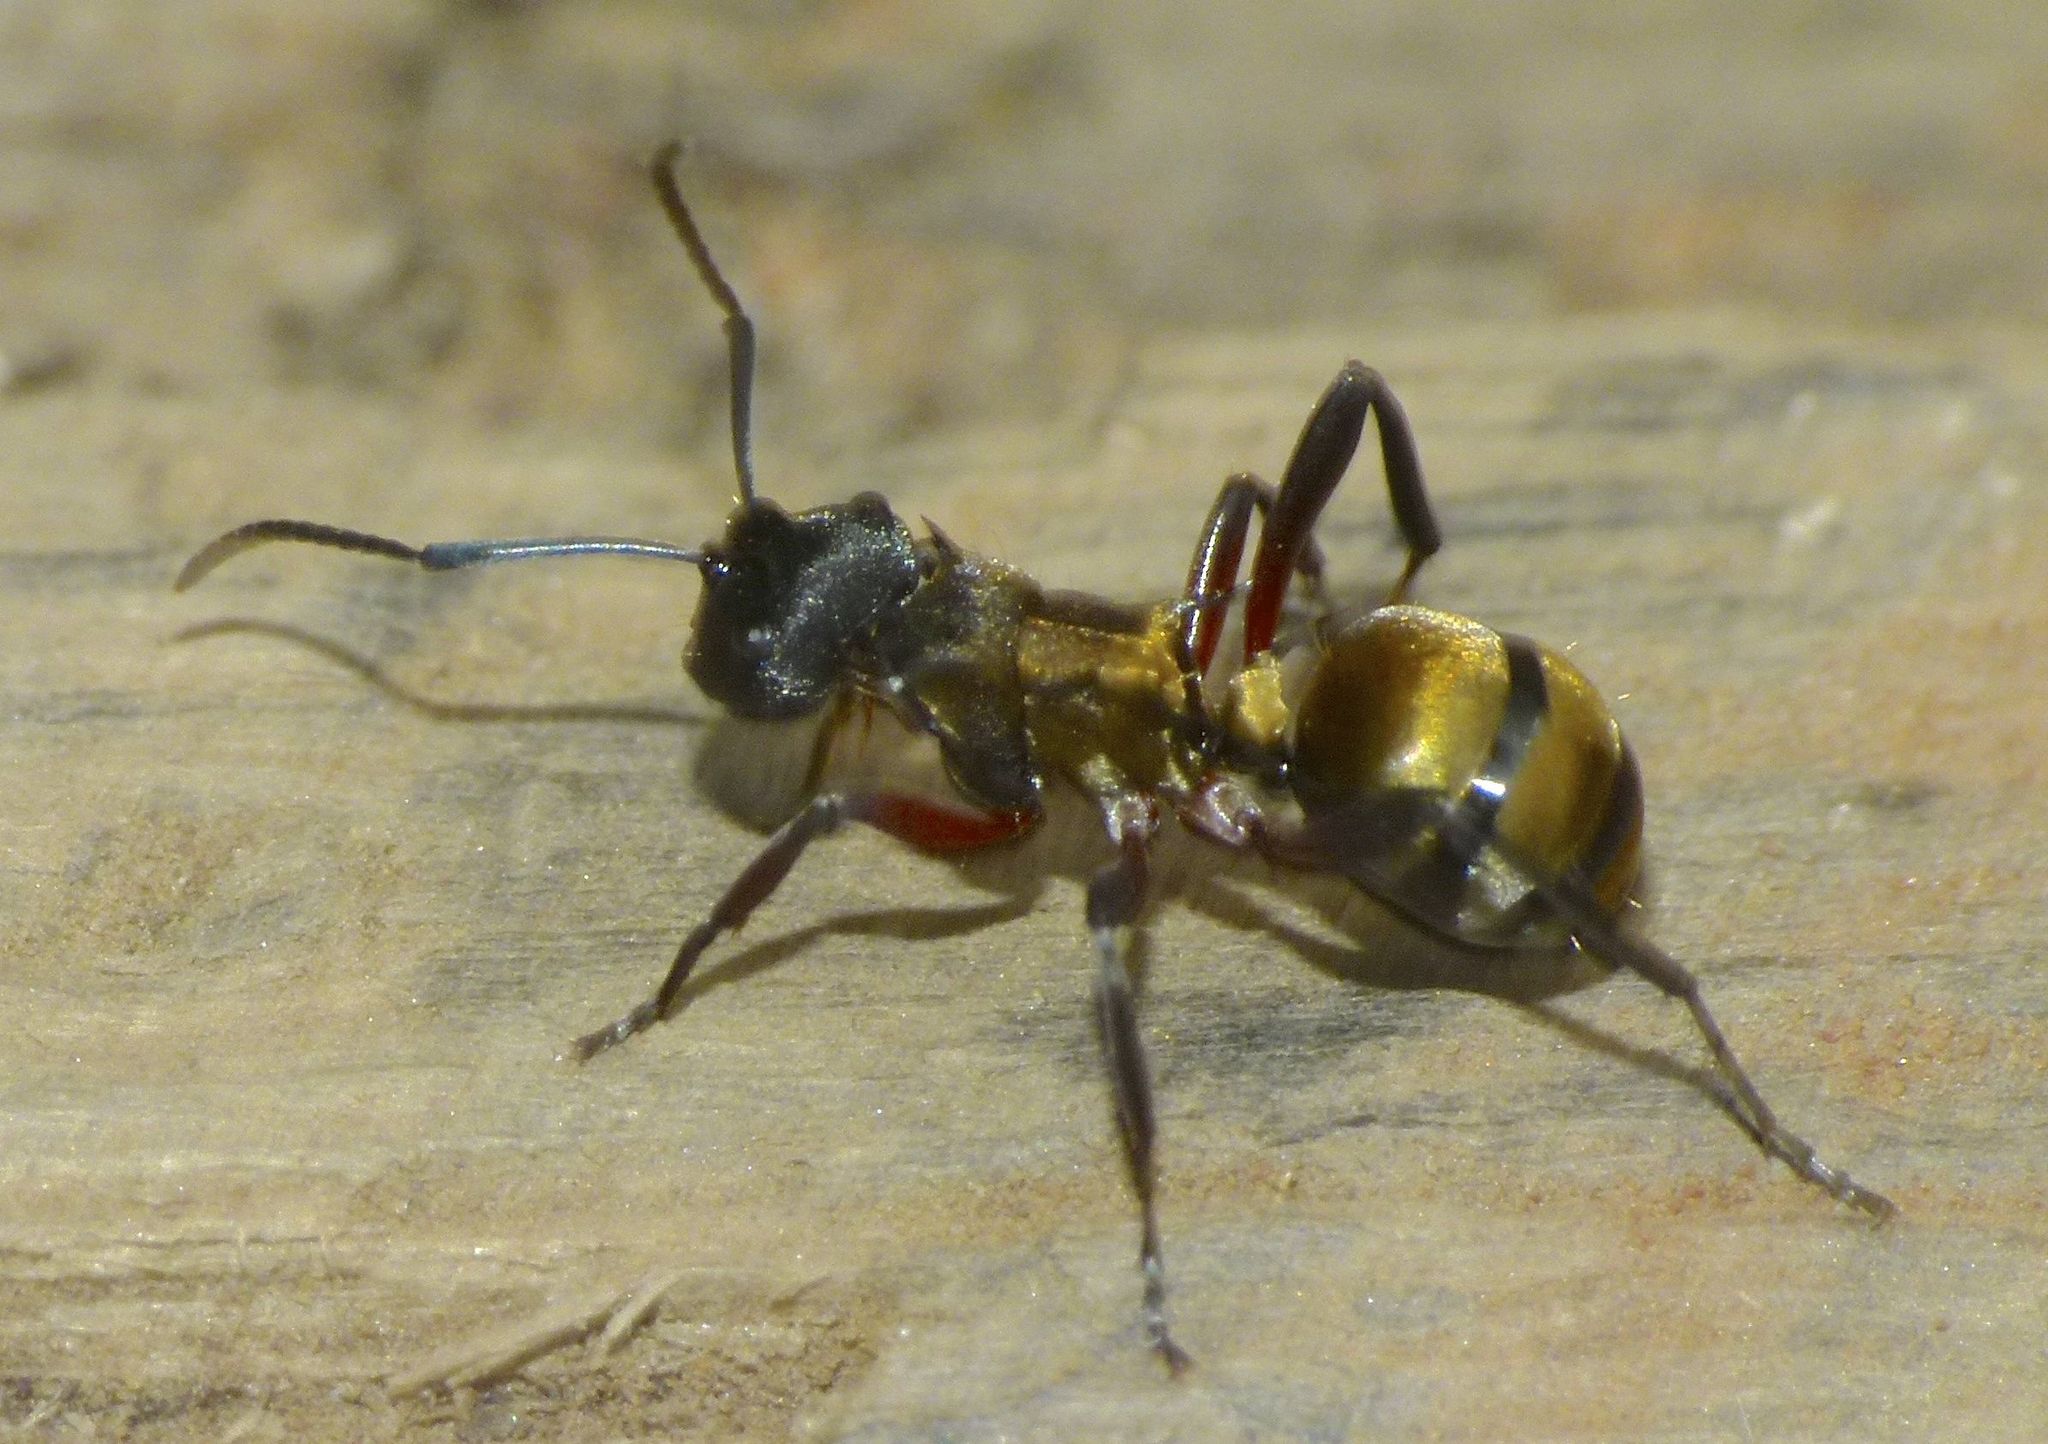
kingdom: Animalia
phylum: Arthropoda
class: Insecta
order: Hymenoptera
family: Formicidae
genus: Polyrhachis
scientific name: Polyrhachis rufifemur
